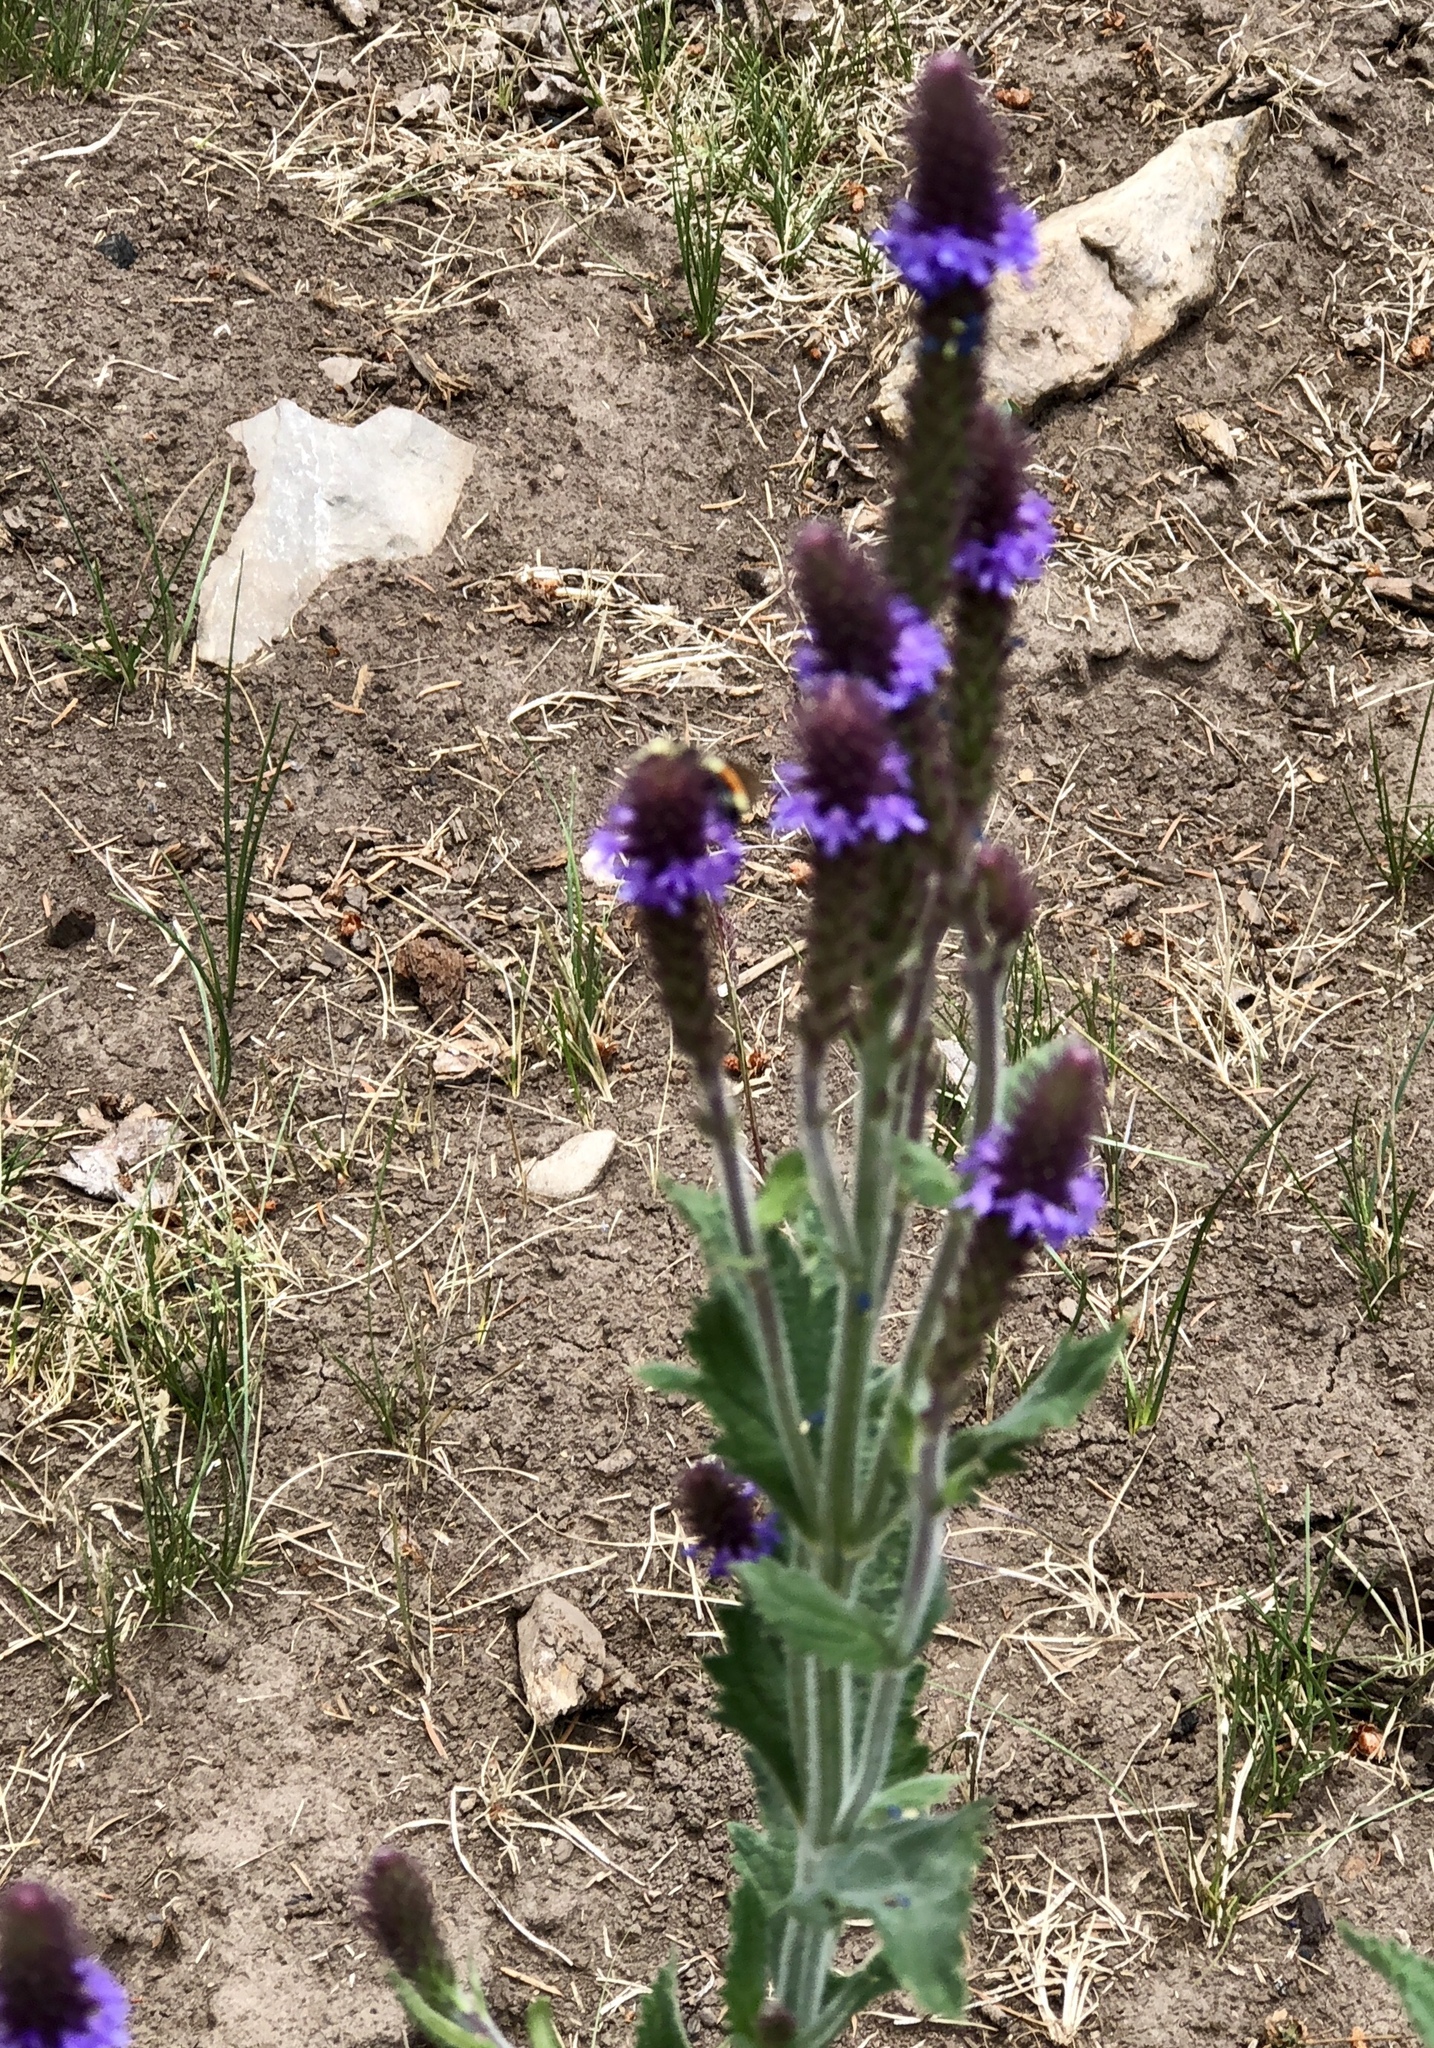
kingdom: Plantae
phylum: Tracheophyta
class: Magnoliopsida
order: Lamiales
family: Verbenaceae
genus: Verbena
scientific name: Verbena macdougalii
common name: New mexico vervain
